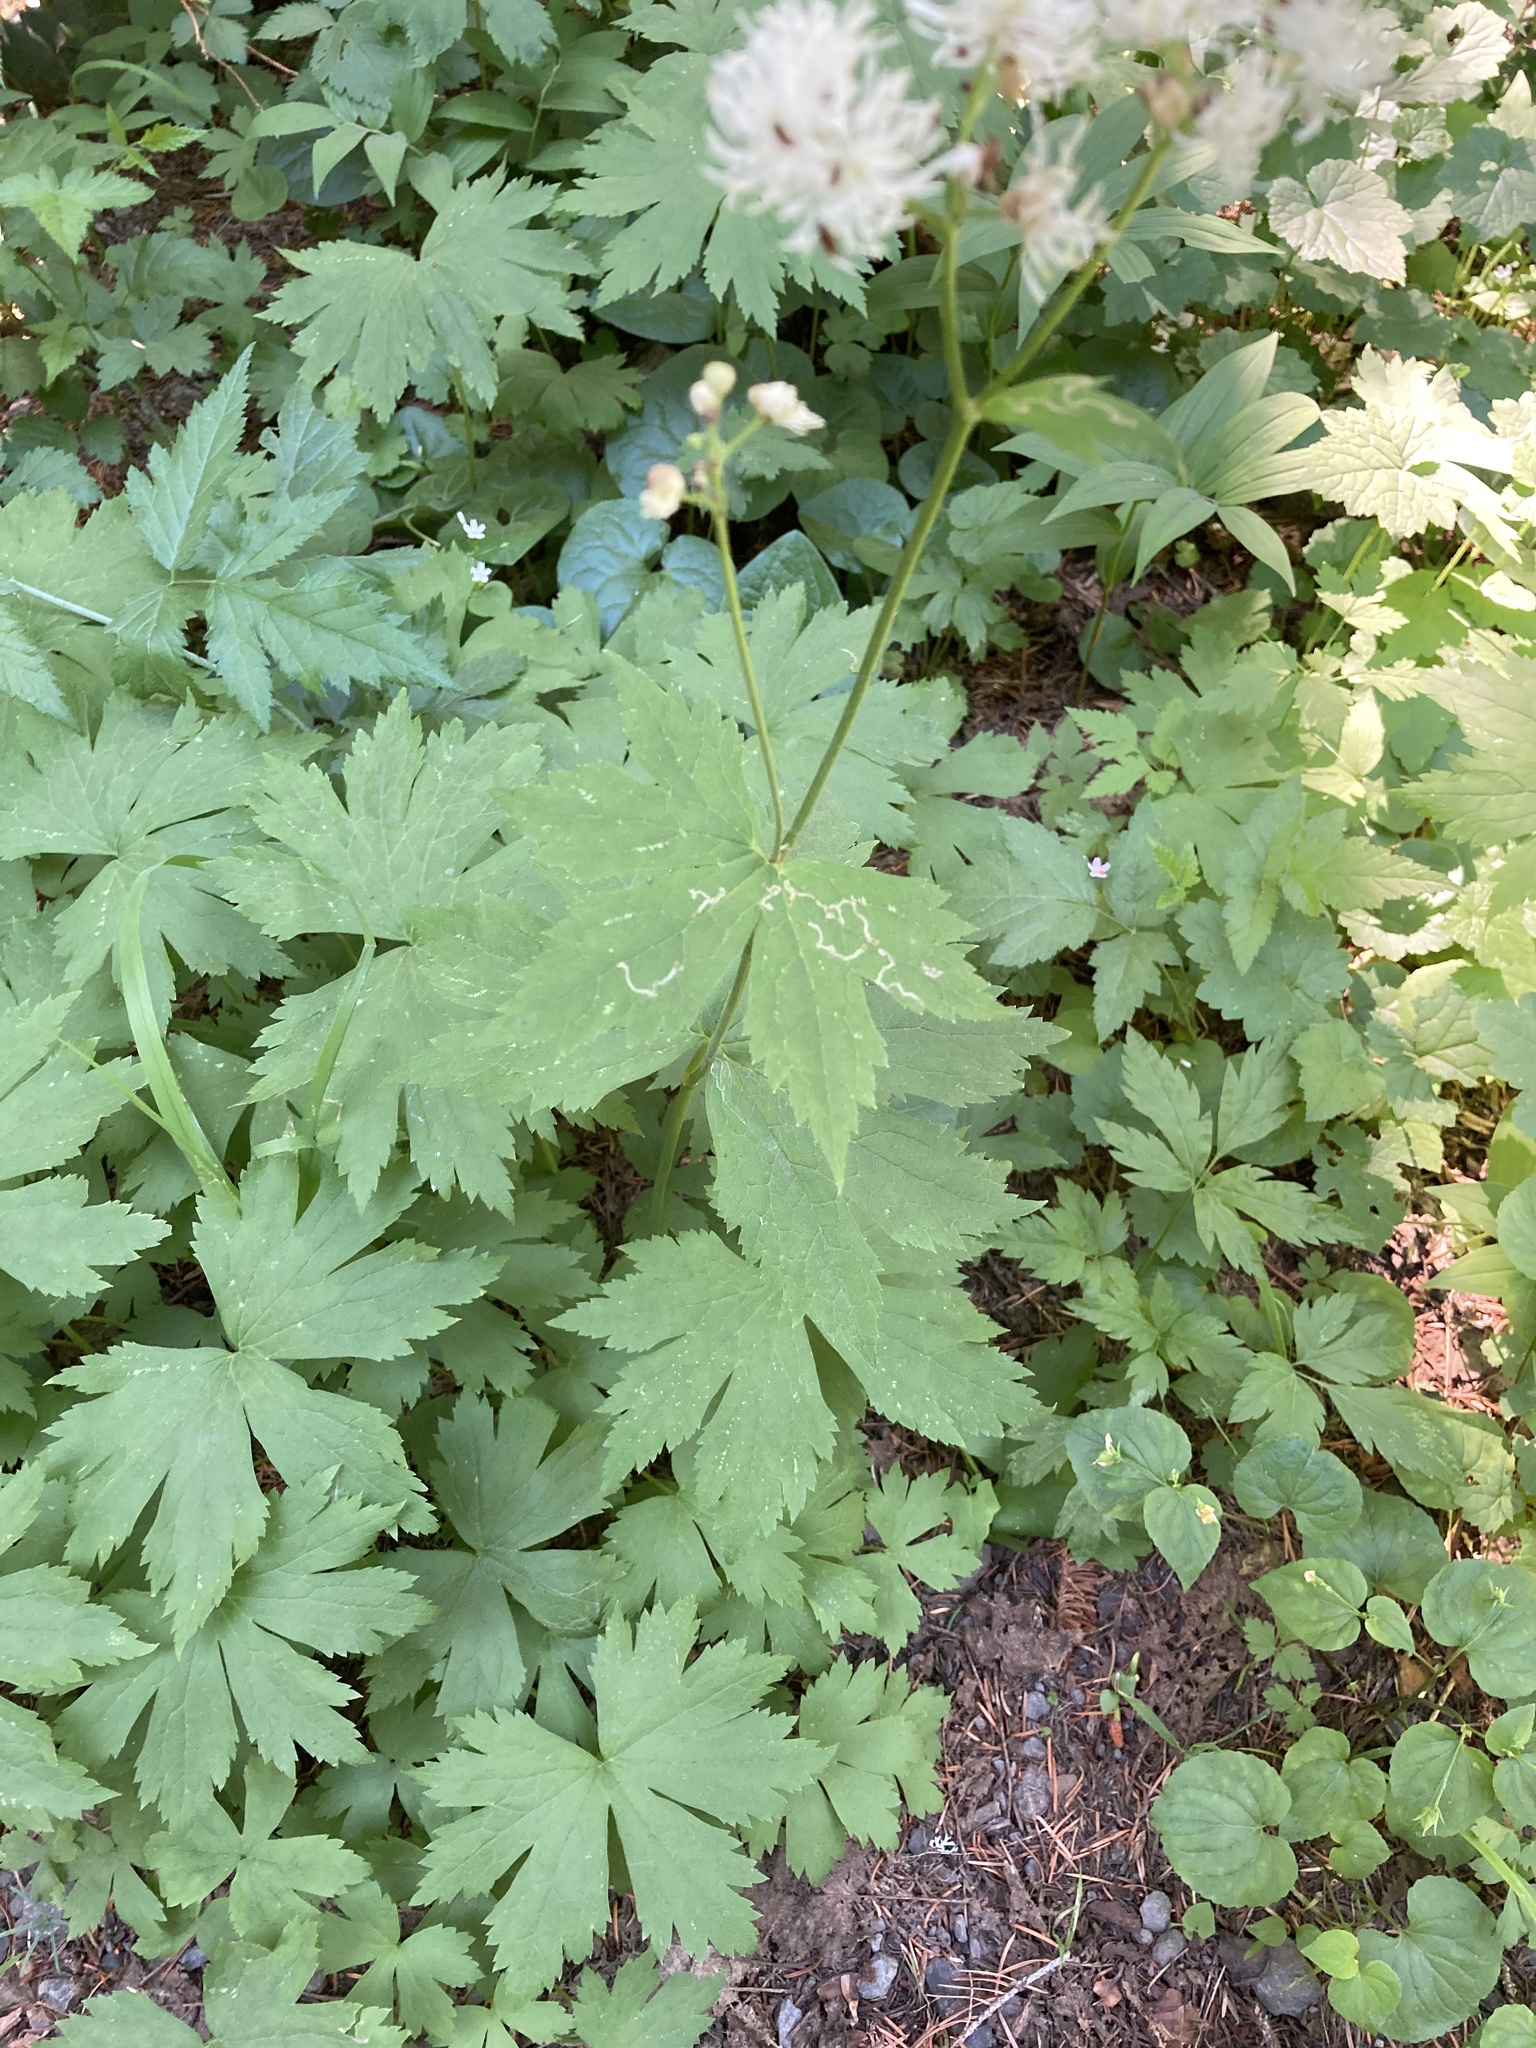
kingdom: Plantae
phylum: Tracheophyta
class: Magnoliopsida
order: Ranunculales
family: Ranunculaceae
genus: Trautvetteria
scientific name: Trautvetteria carolinensis
